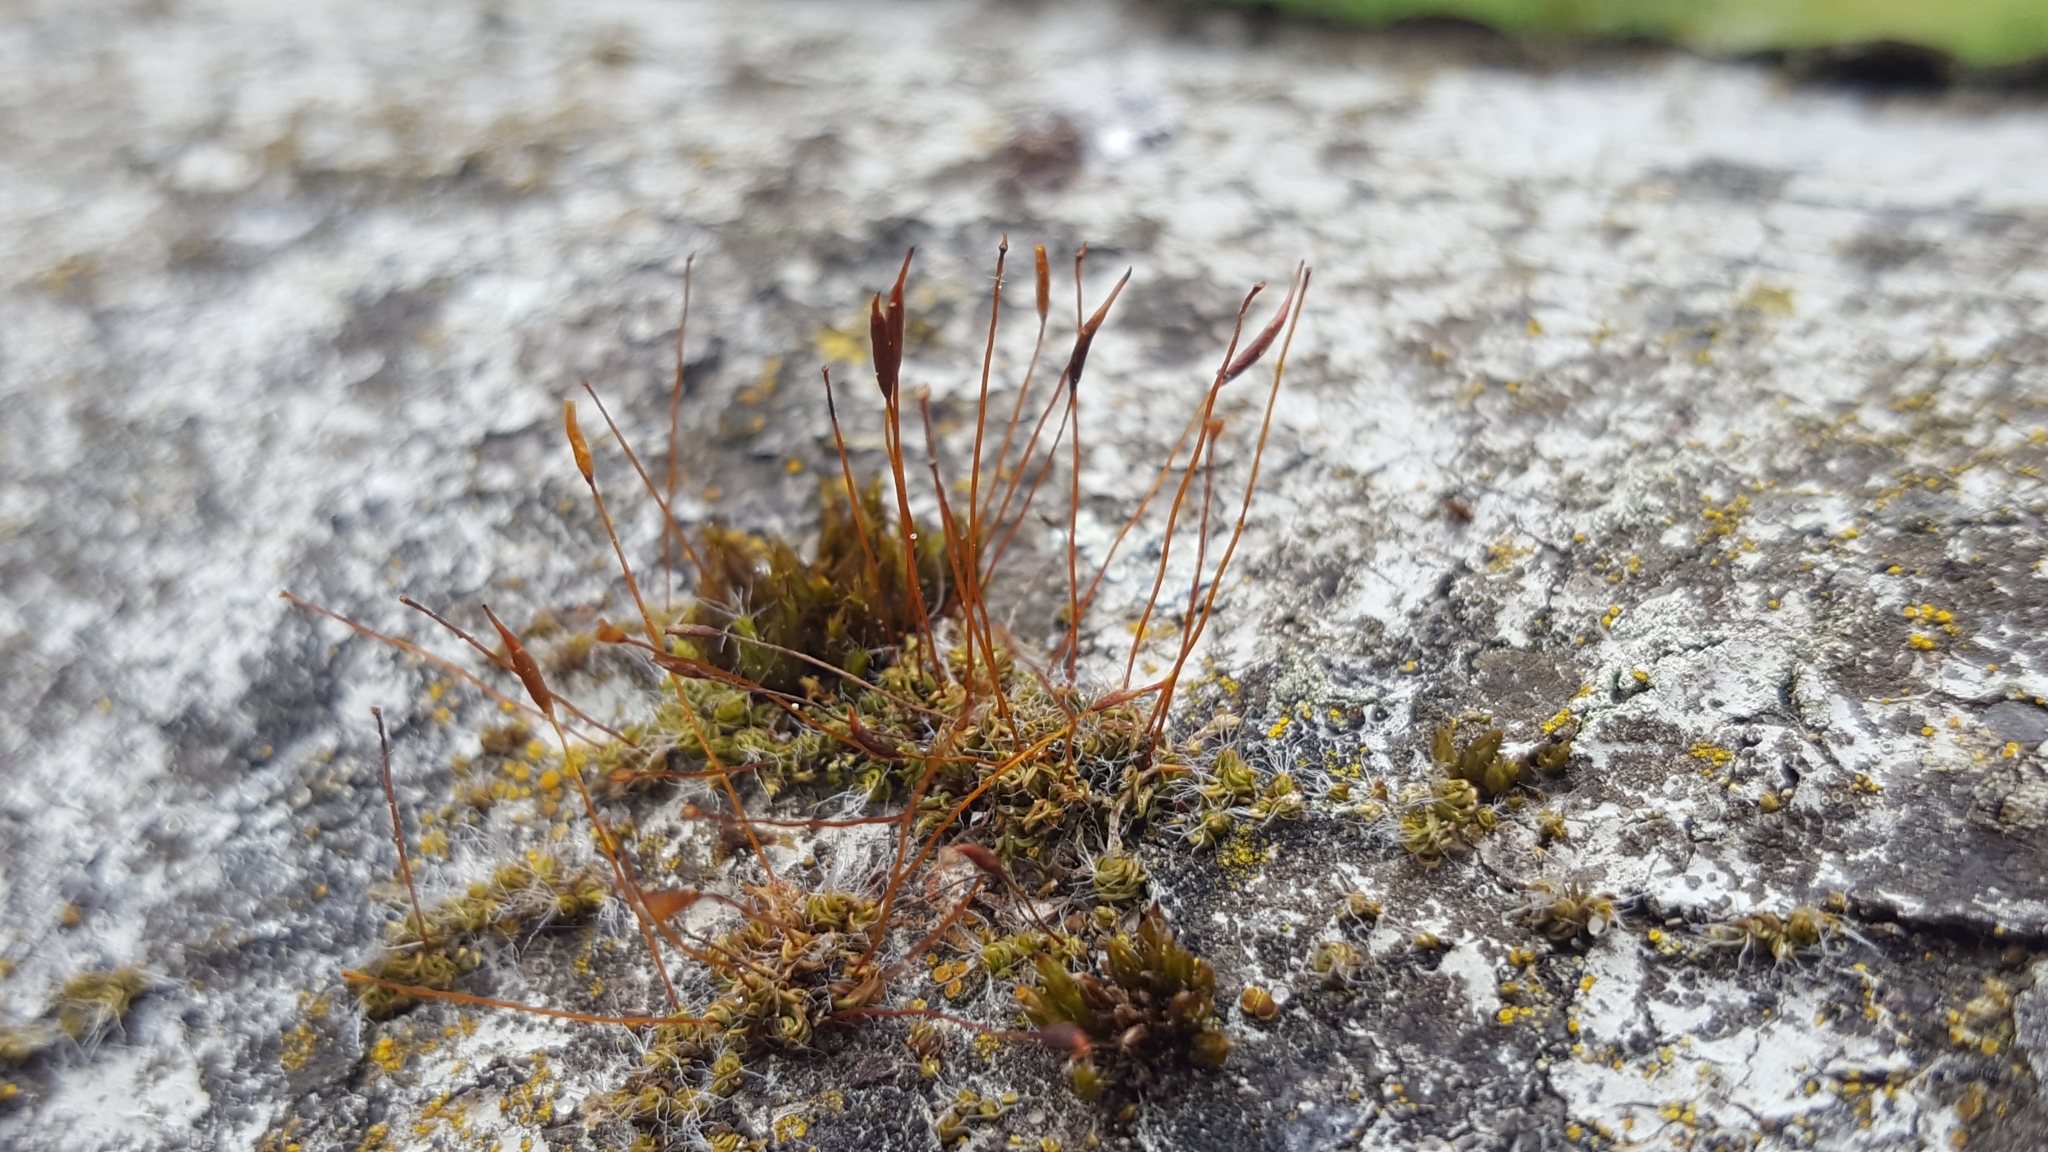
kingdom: Plantae
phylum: Bryophyta
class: Bryopsida
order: Pottiales
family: Pottiaceae
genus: Tortula
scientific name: Tortula muralis
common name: Wall screw-moss
